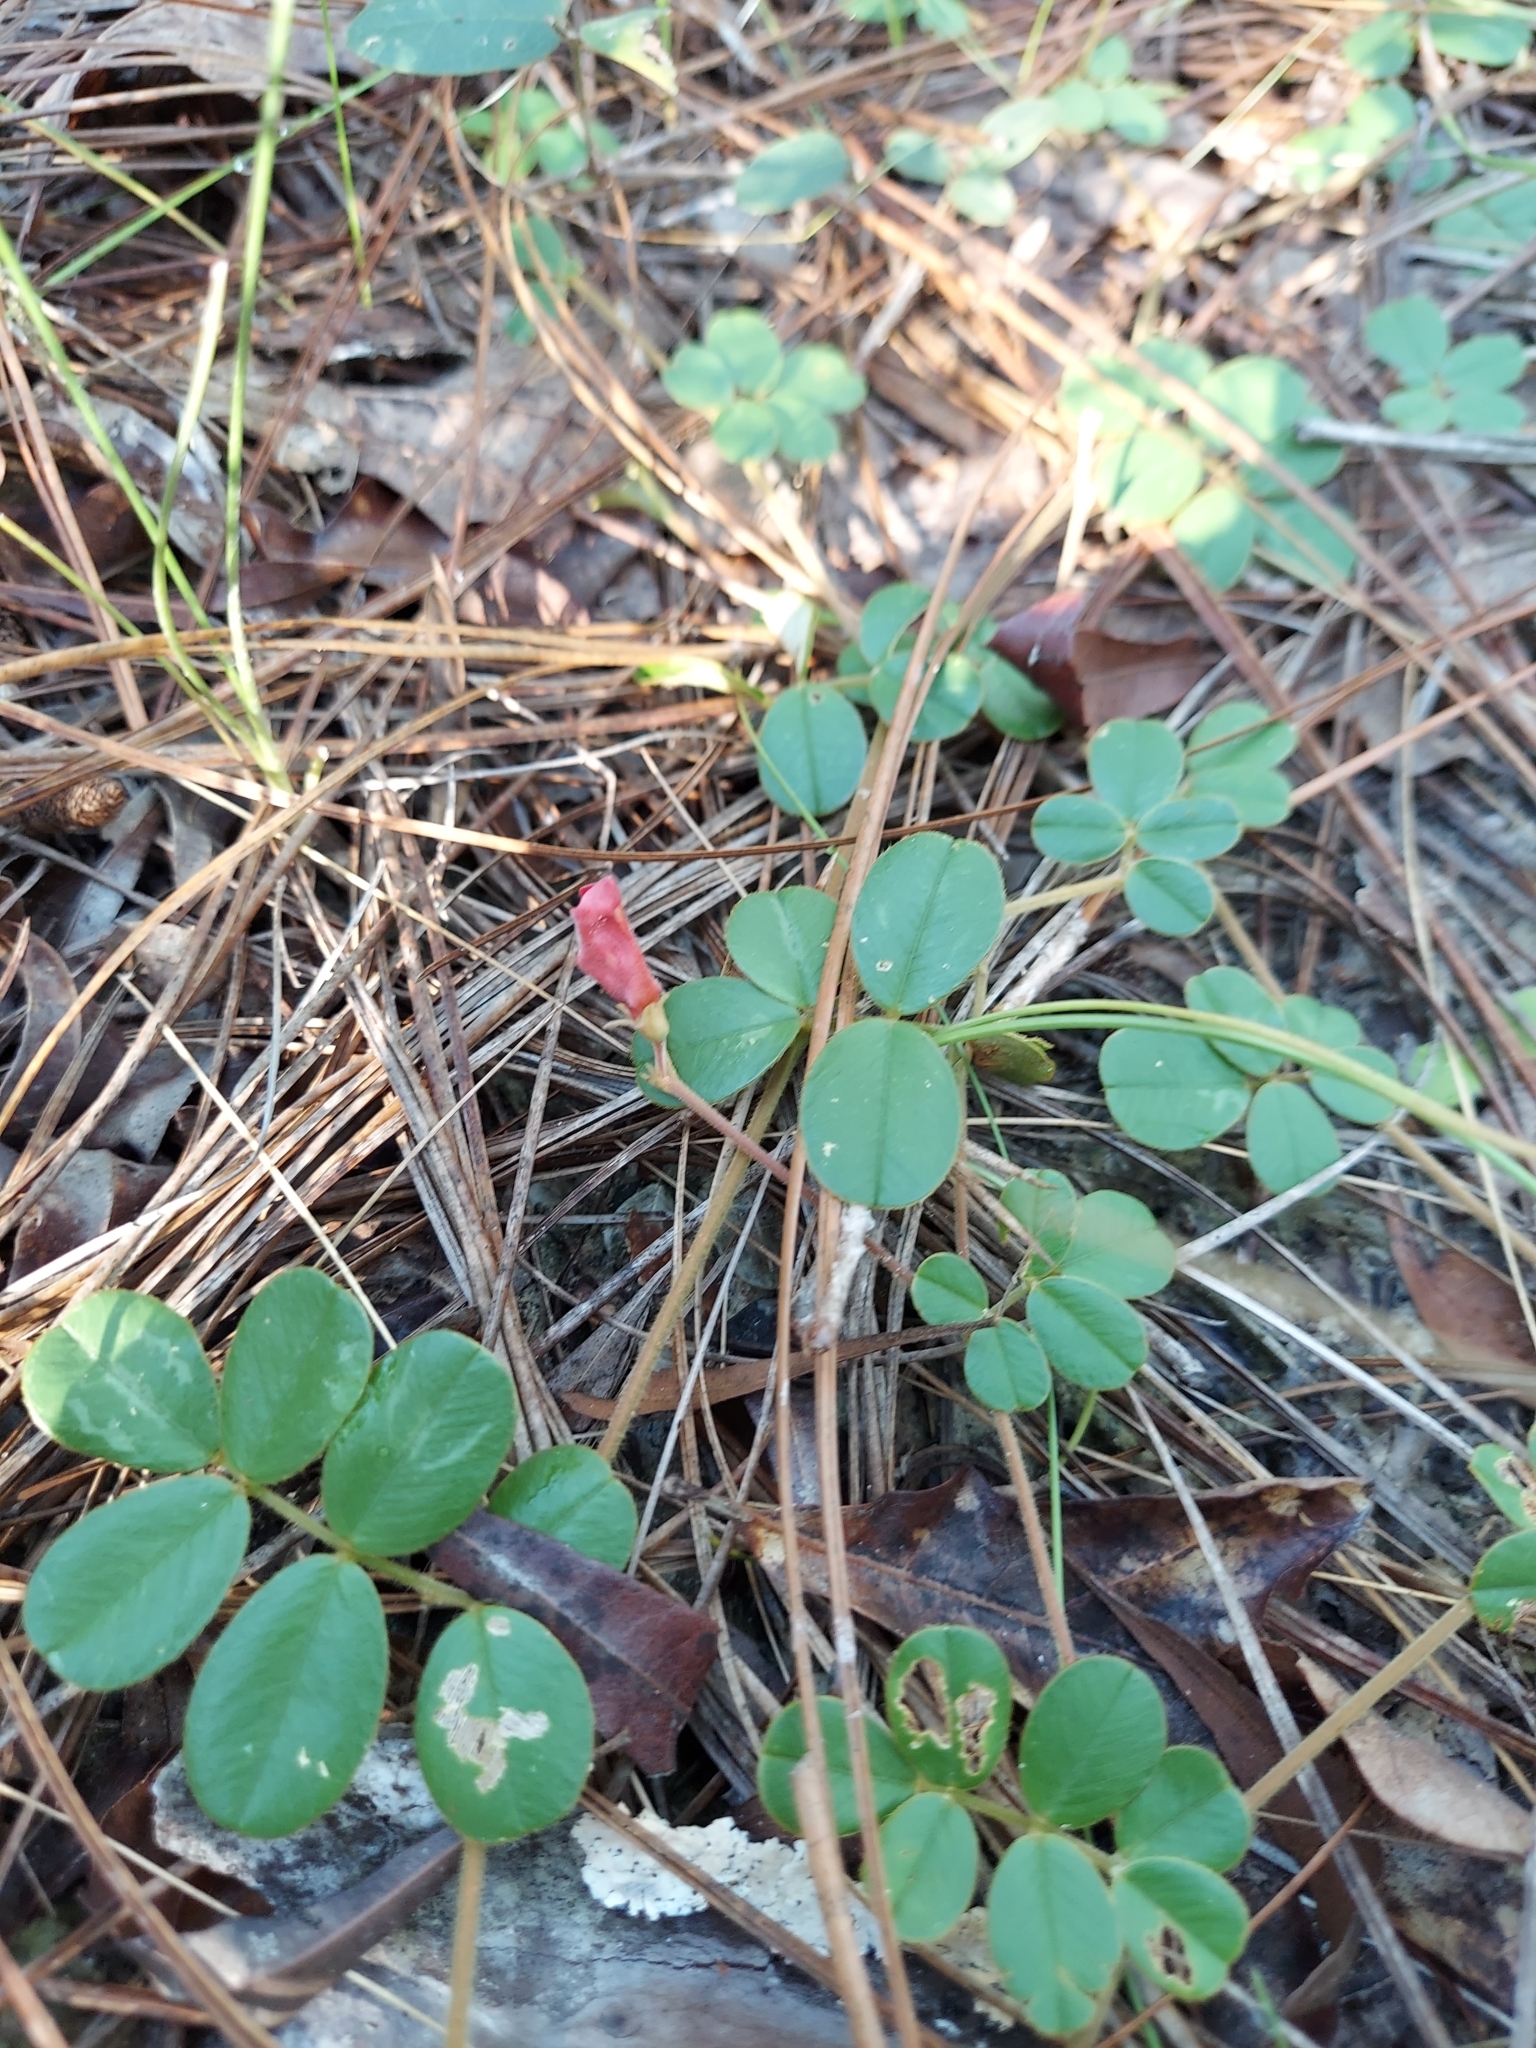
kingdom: Plantae
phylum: Tracheophyta
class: Magnoliopsida
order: Fabales
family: Fabaceae
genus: Tephrosia
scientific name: Tephrosia chrysophylla
